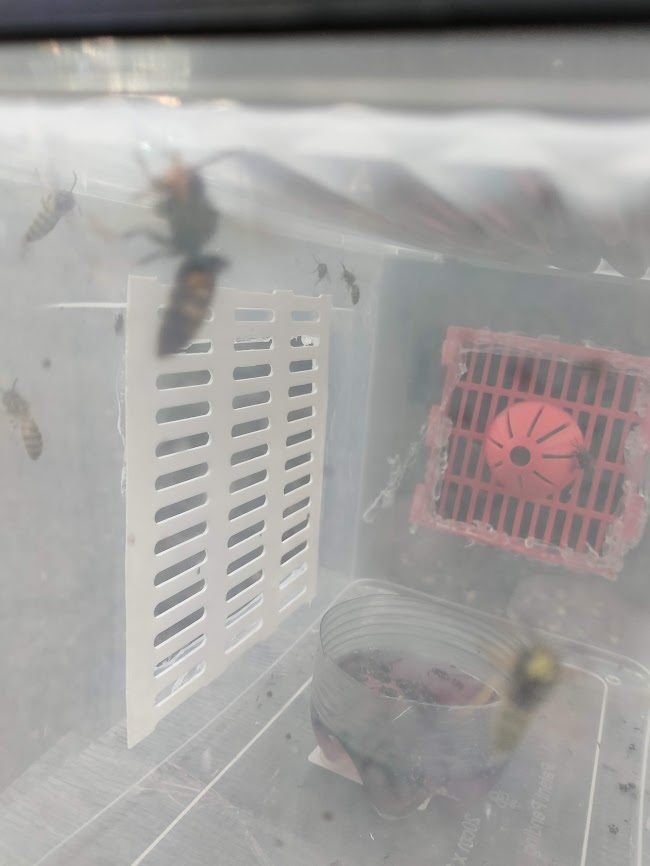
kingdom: Animalia
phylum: Arthropoda
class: Insecta
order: Hymenoptera
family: Vespidae
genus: Vespa
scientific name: Vespa velutina
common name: Asian hornet
